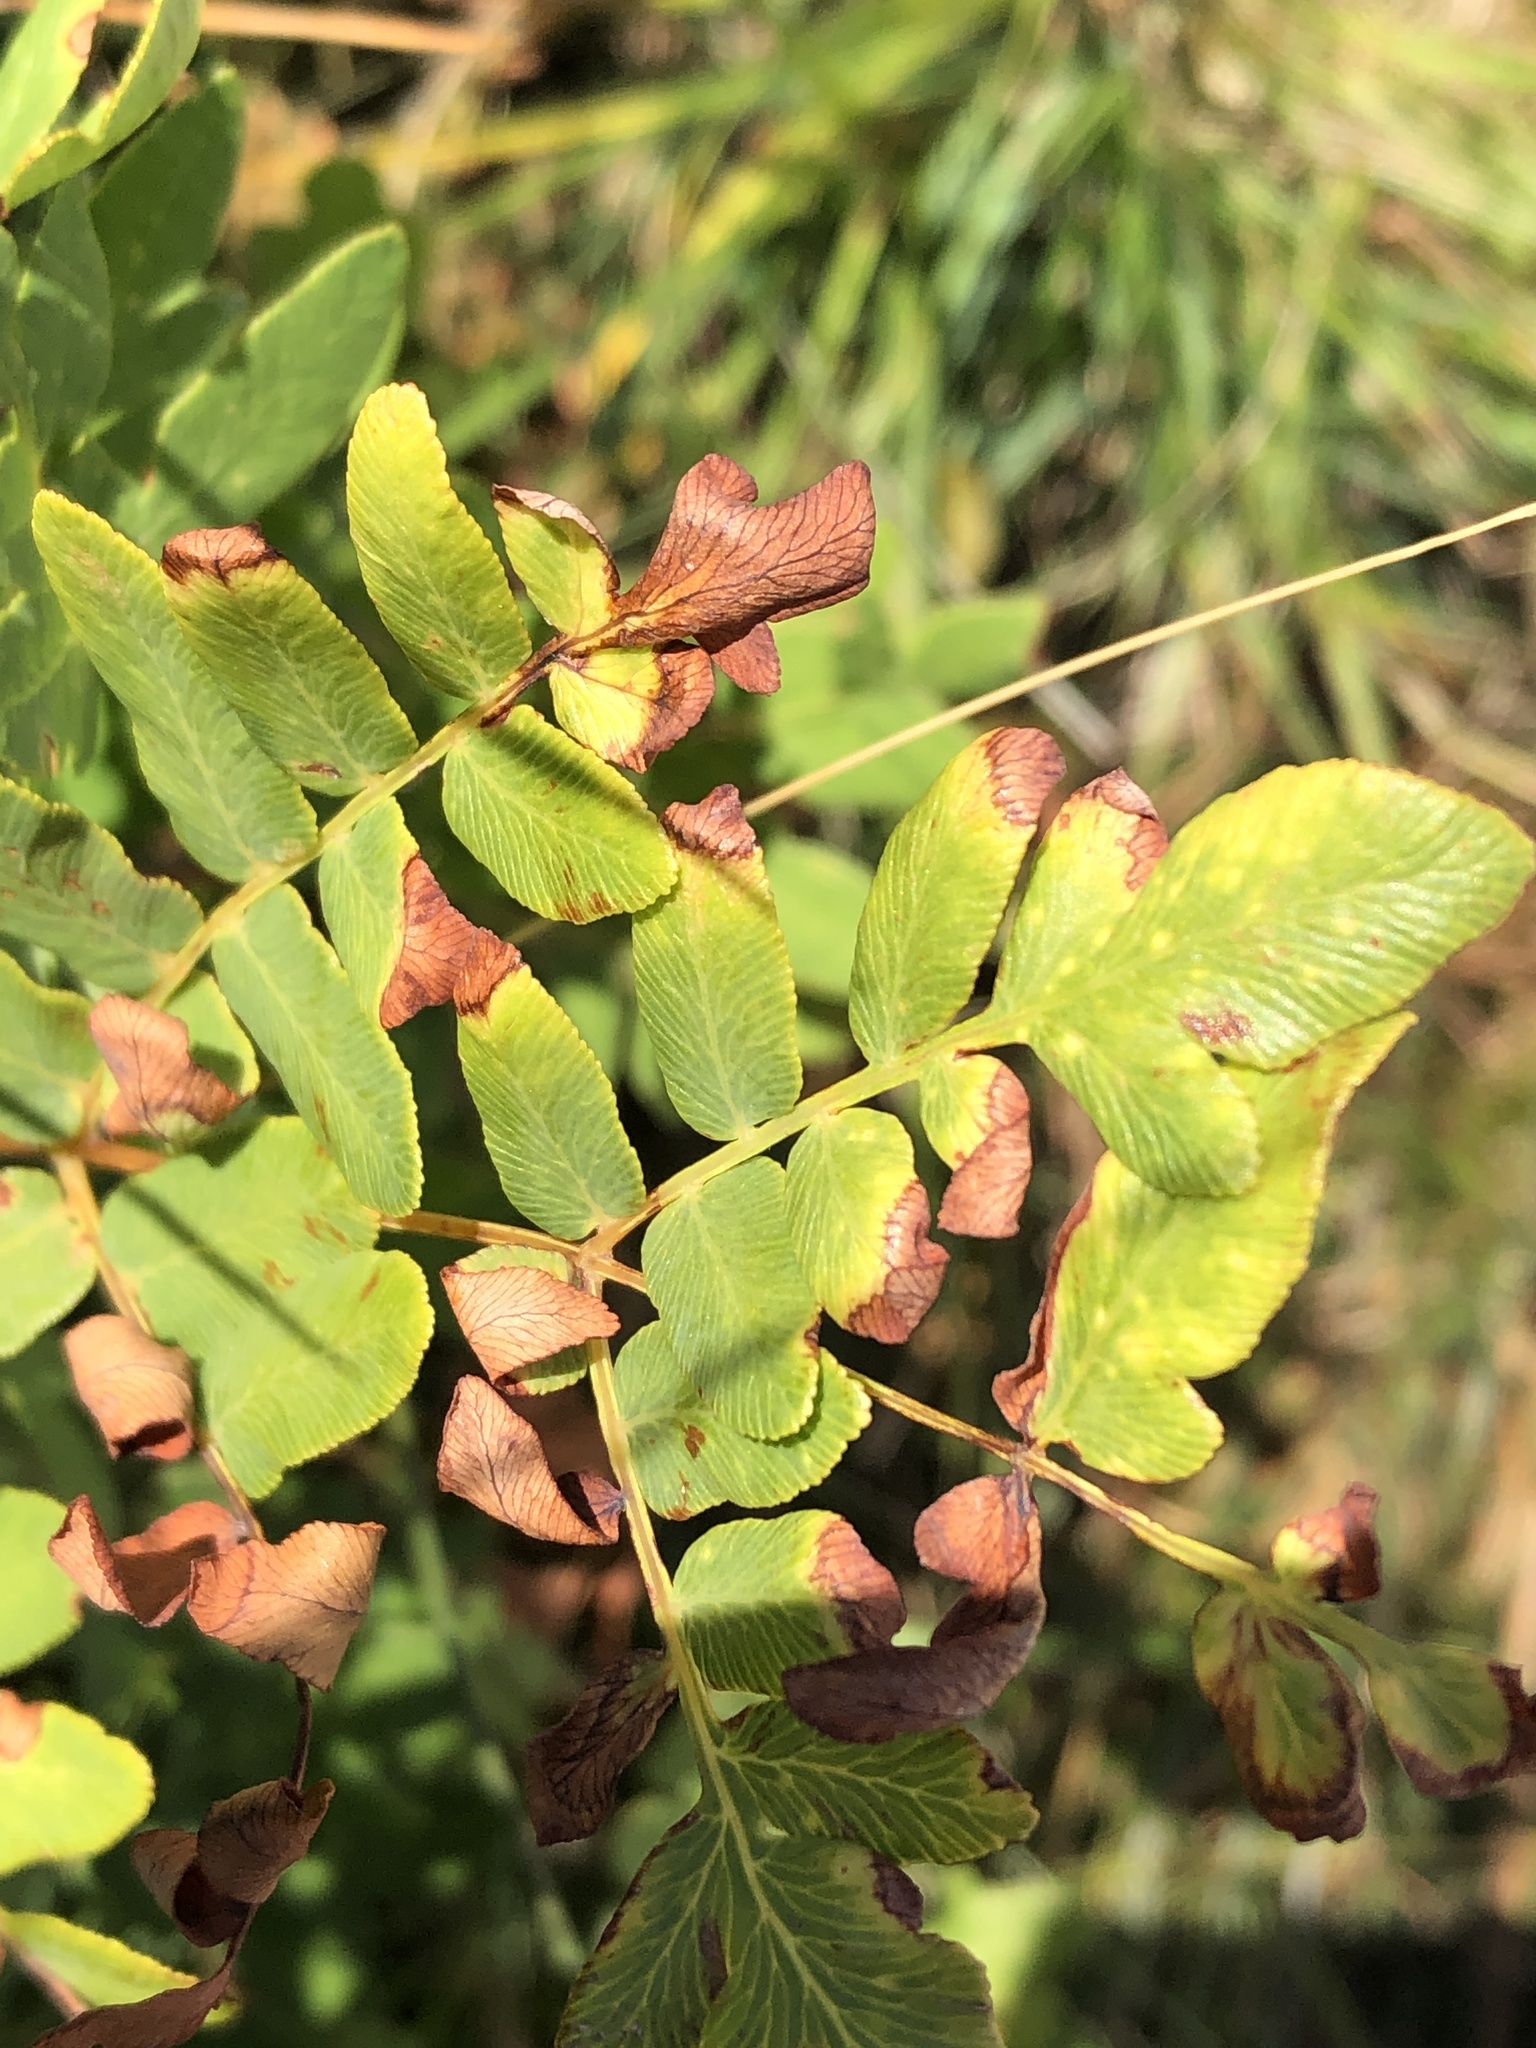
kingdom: Plantae
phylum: Tracheophyta
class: Polypodiopsida
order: Osmundales
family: Osmundaceae
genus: Osmunda
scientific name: Osmunda spectabilis
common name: American royal fern
